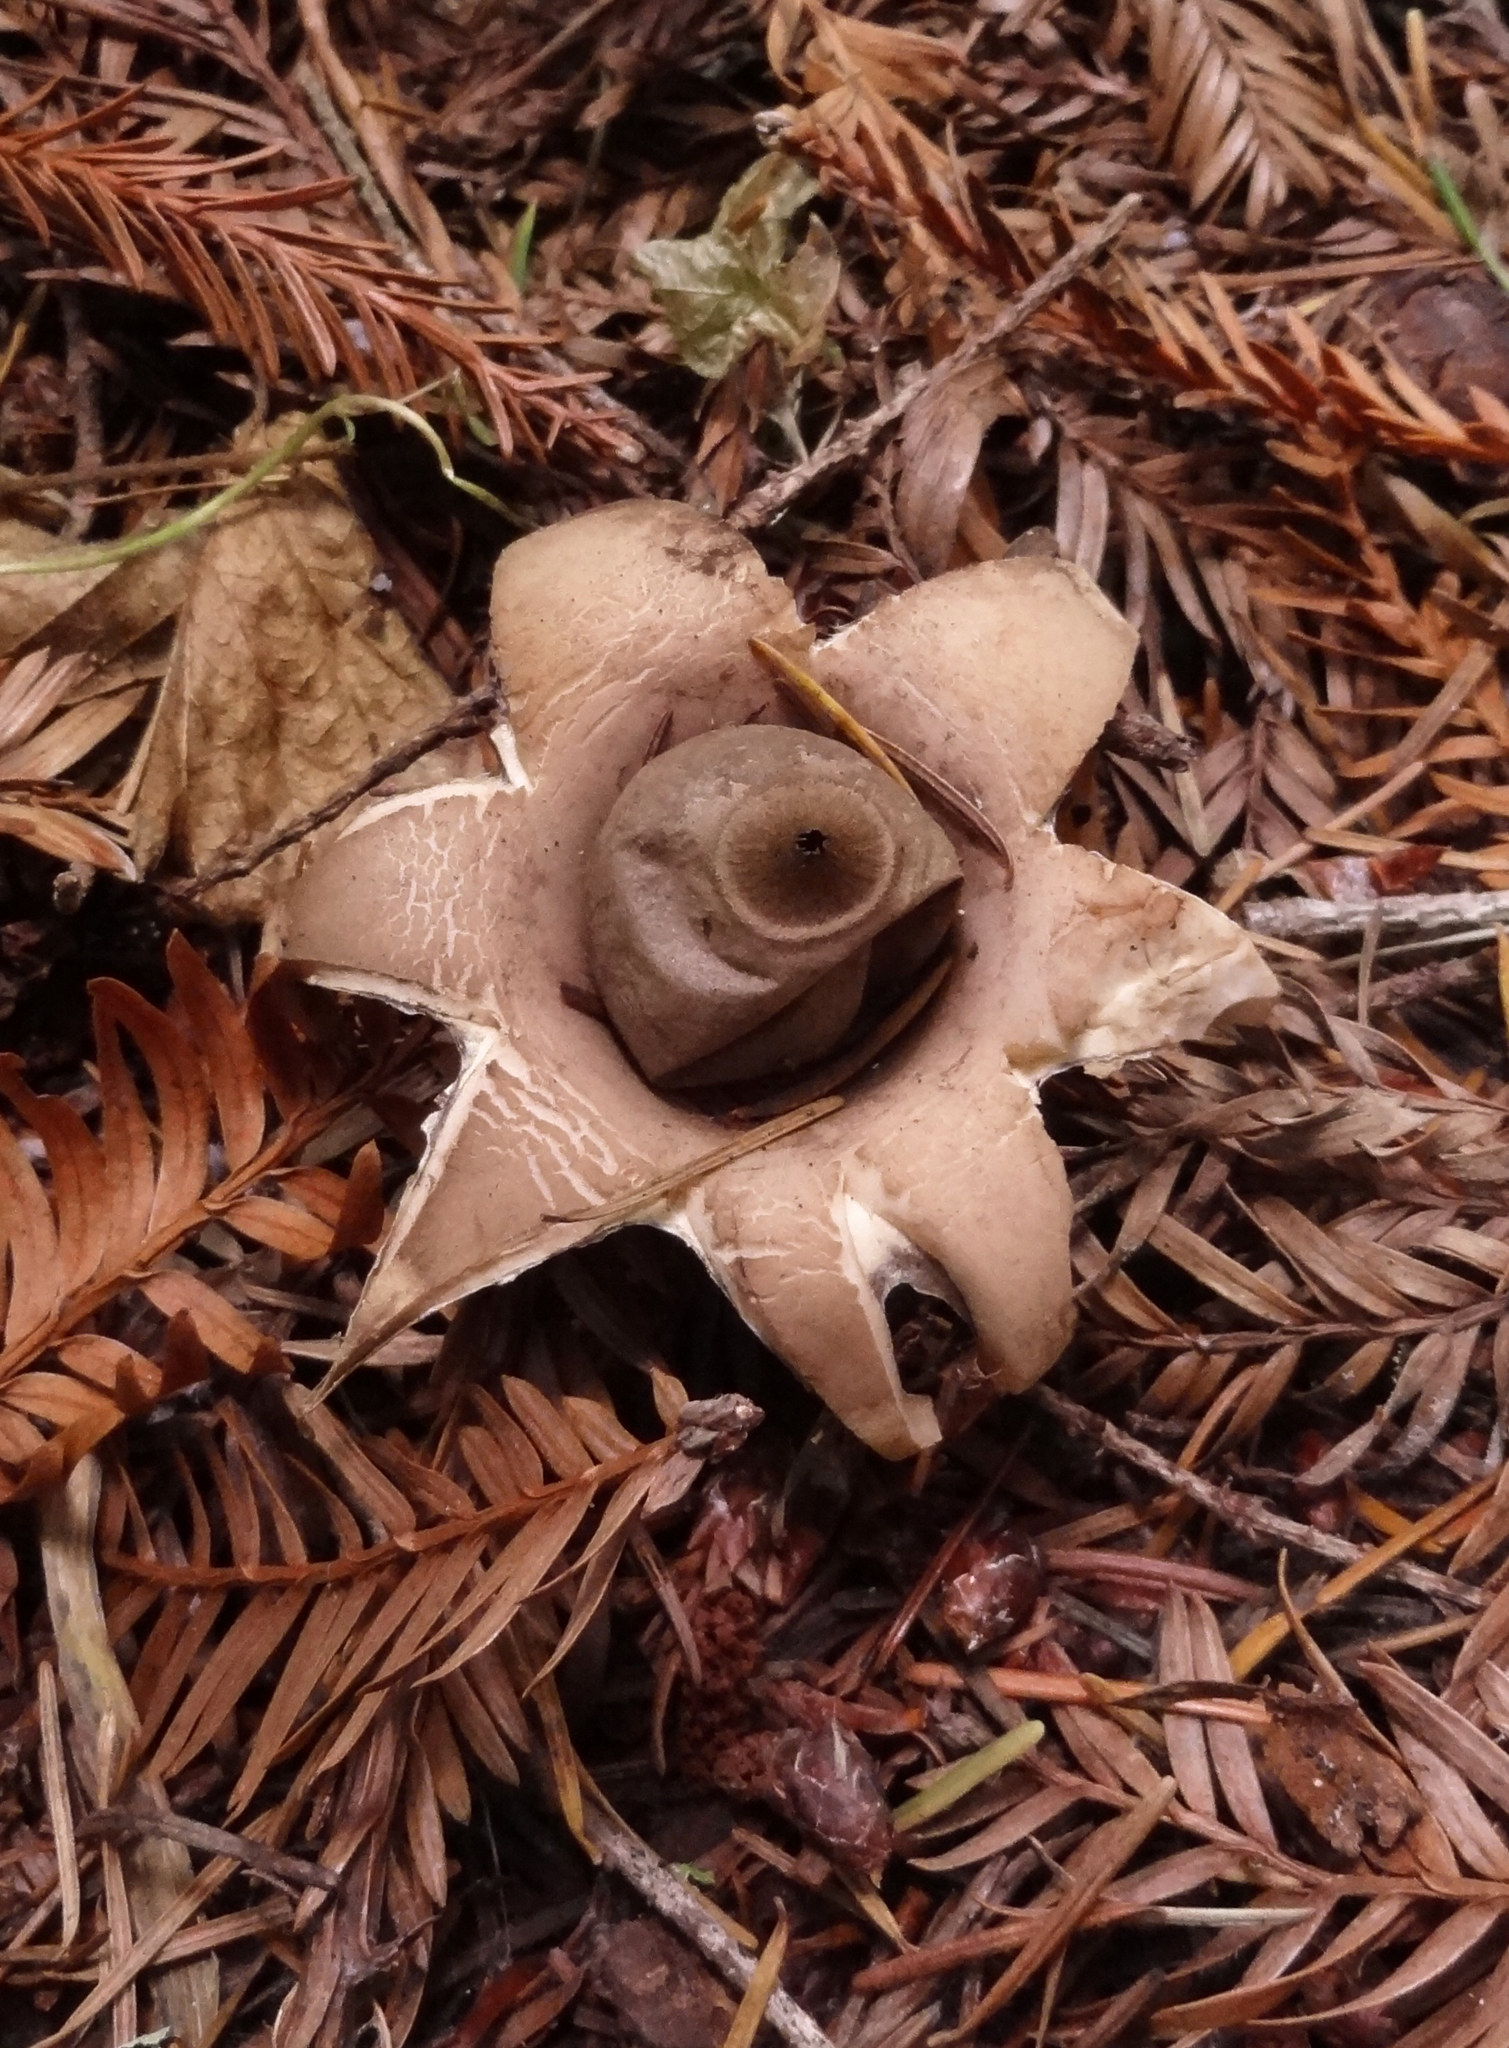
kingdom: Fungi
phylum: Basidiomycota
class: Agaricomycetes
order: Geastrales
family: Geastraceae
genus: Geastrum
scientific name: Geastrum saccatum
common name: Rounded earthstar
